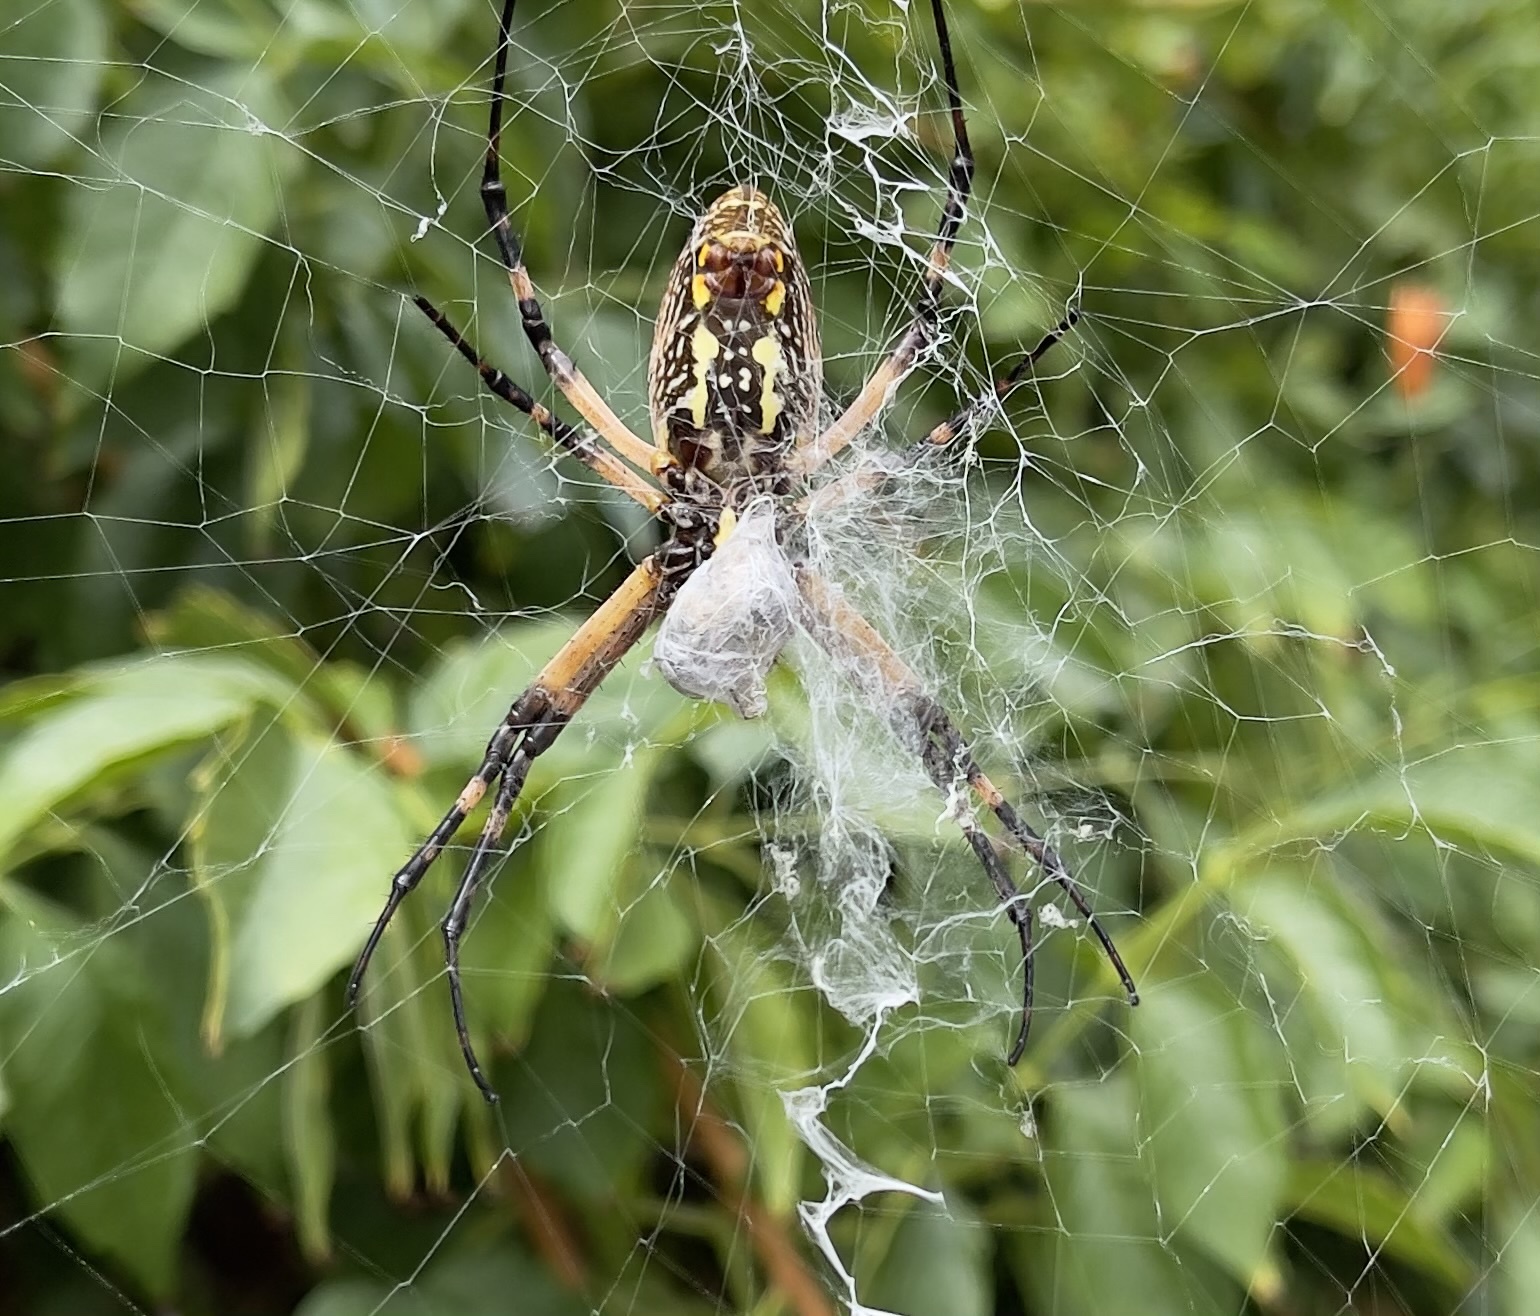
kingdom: Animalia
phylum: Arthropoda
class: Arachnida
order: Araneae
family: Araneidae
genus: Argiope
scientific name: Argiope aurantia
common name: Orb weavers
